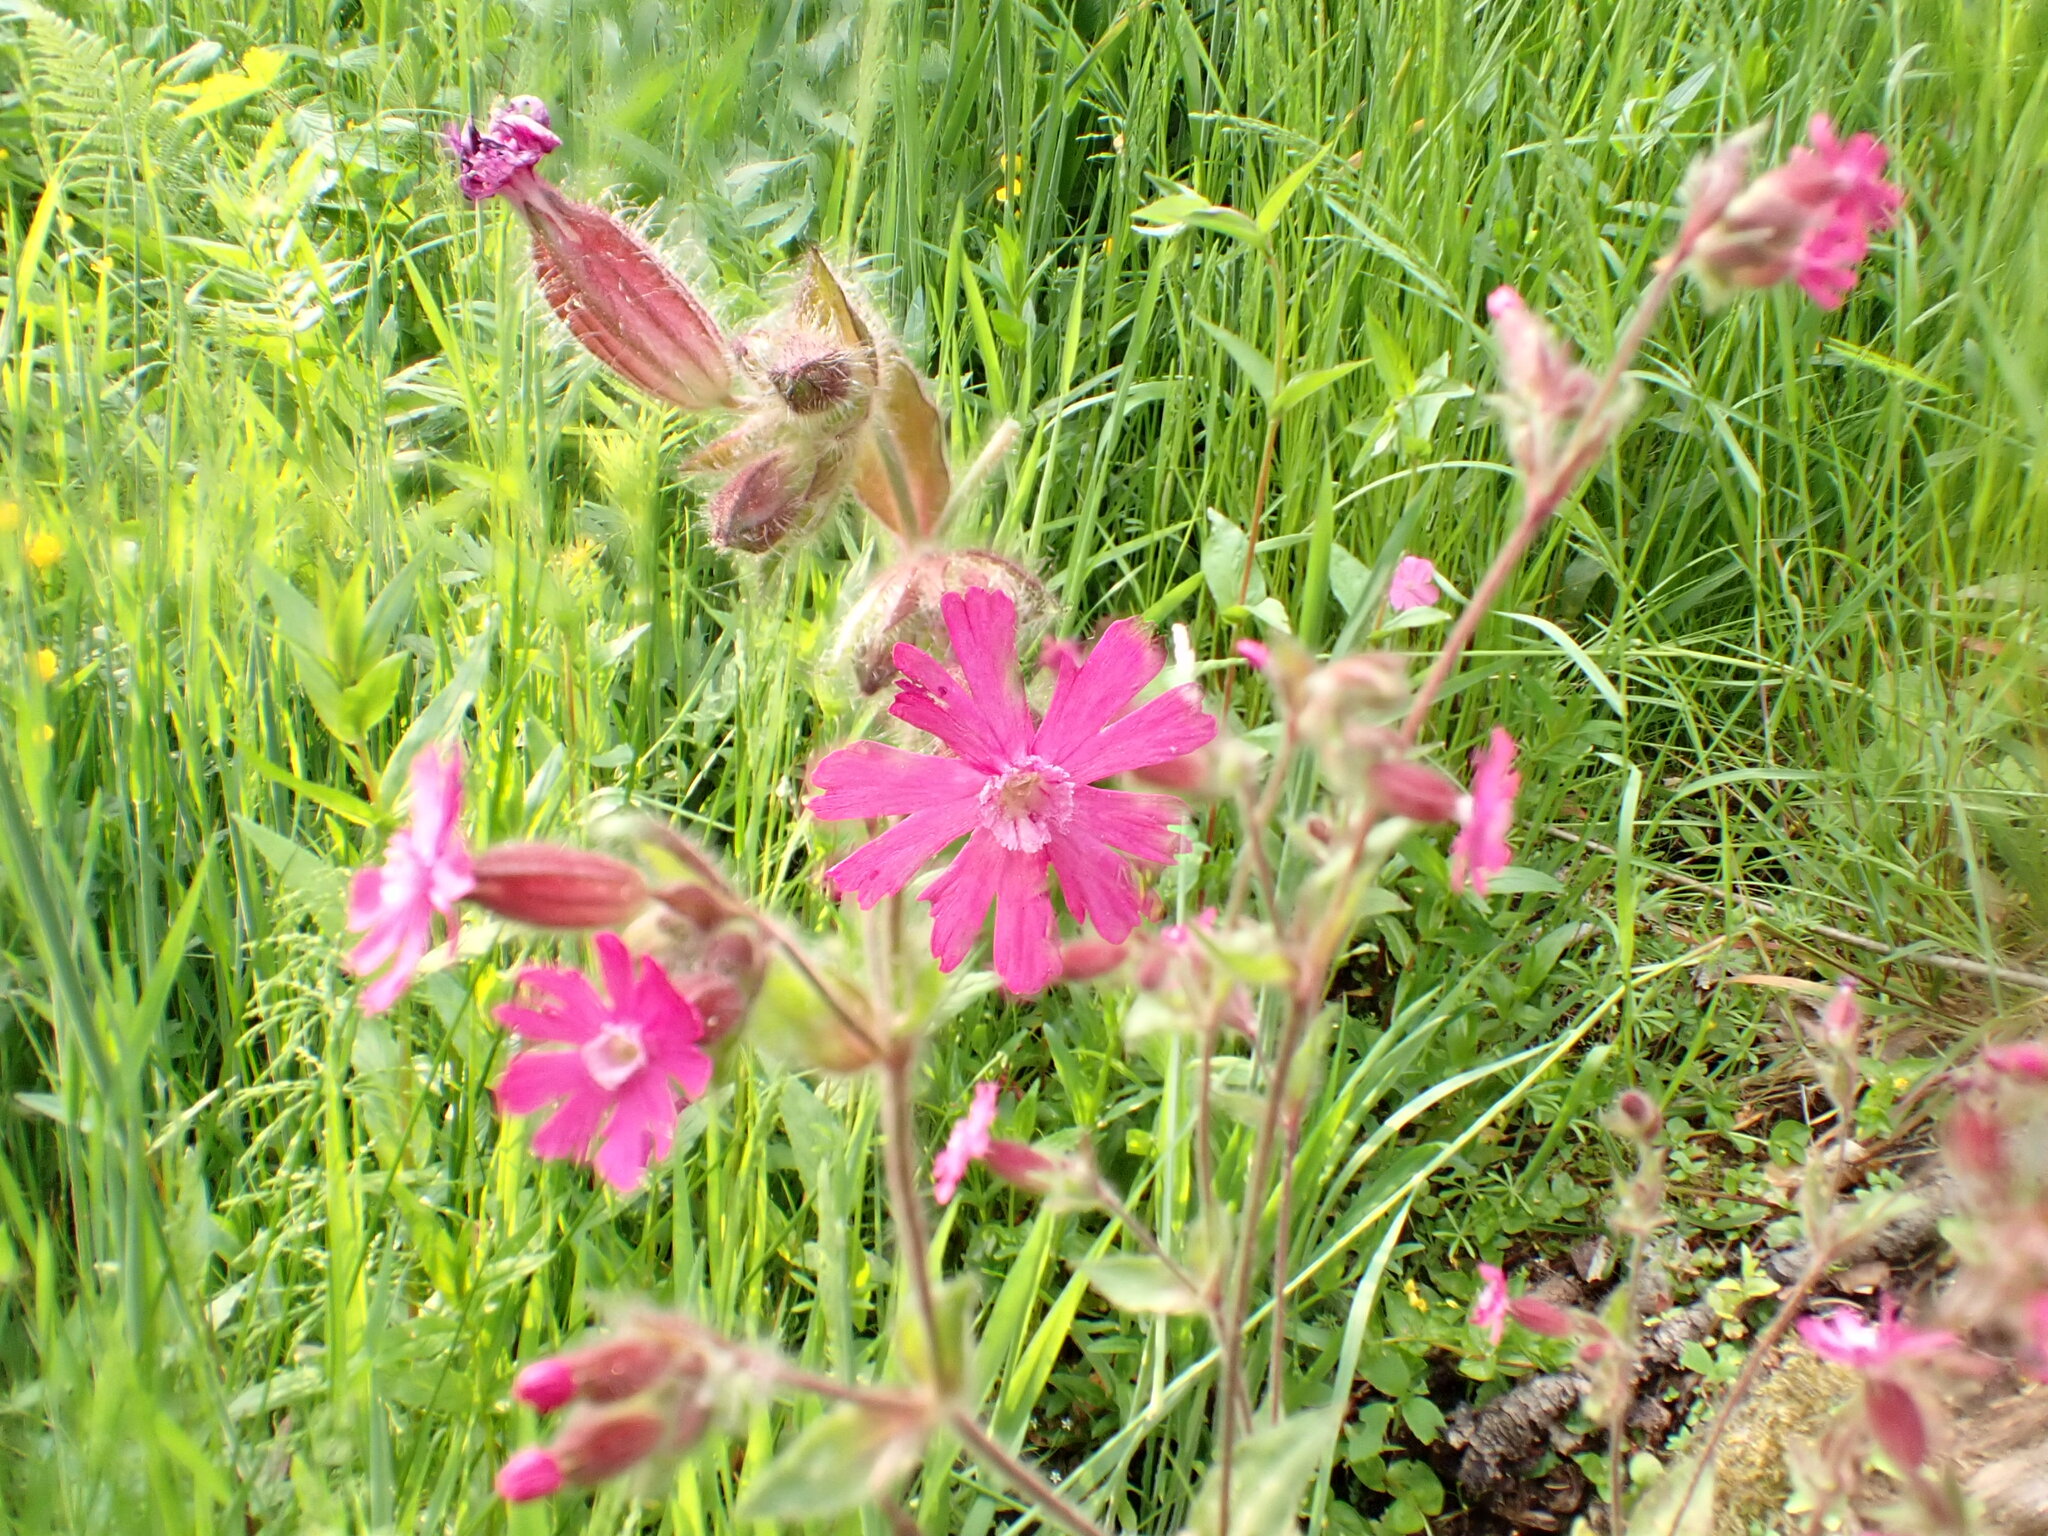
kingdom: Plantae
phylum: Tracheophyta
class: Magnoliopsida
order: Caryophyllales
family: Caryophyllaceae
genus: Silene
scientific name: Silene dioica
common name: Red campion
